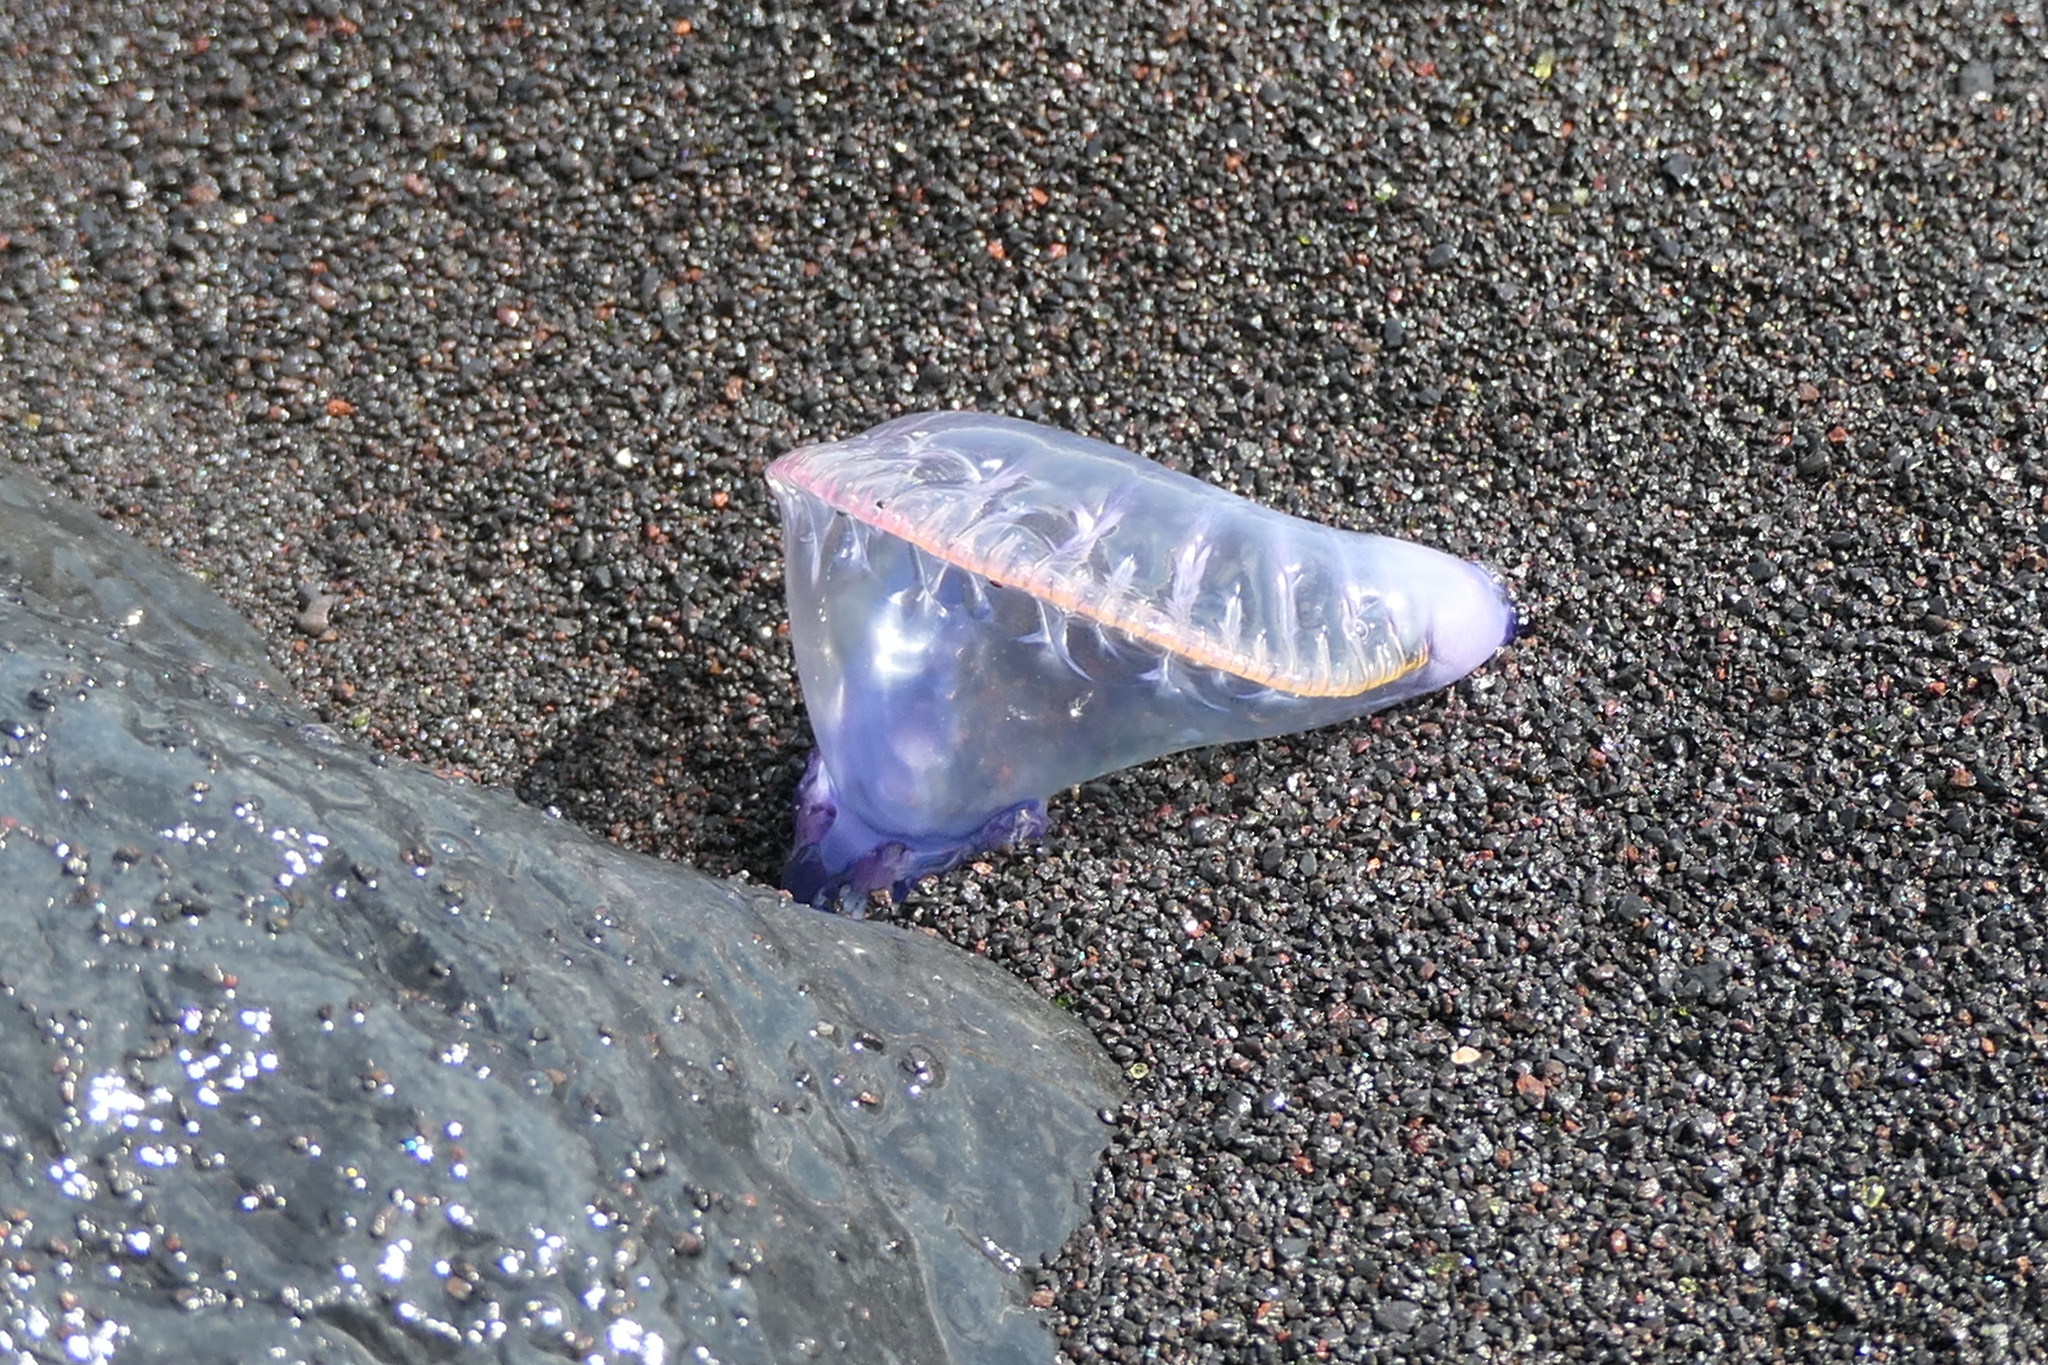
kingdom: Animalia
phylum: Cnidaria
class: Hydrozoa
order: Siphonophorae
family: Physaliidae
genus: Physalia
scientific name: Physalia physalis
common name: Portuguese man-of-war
